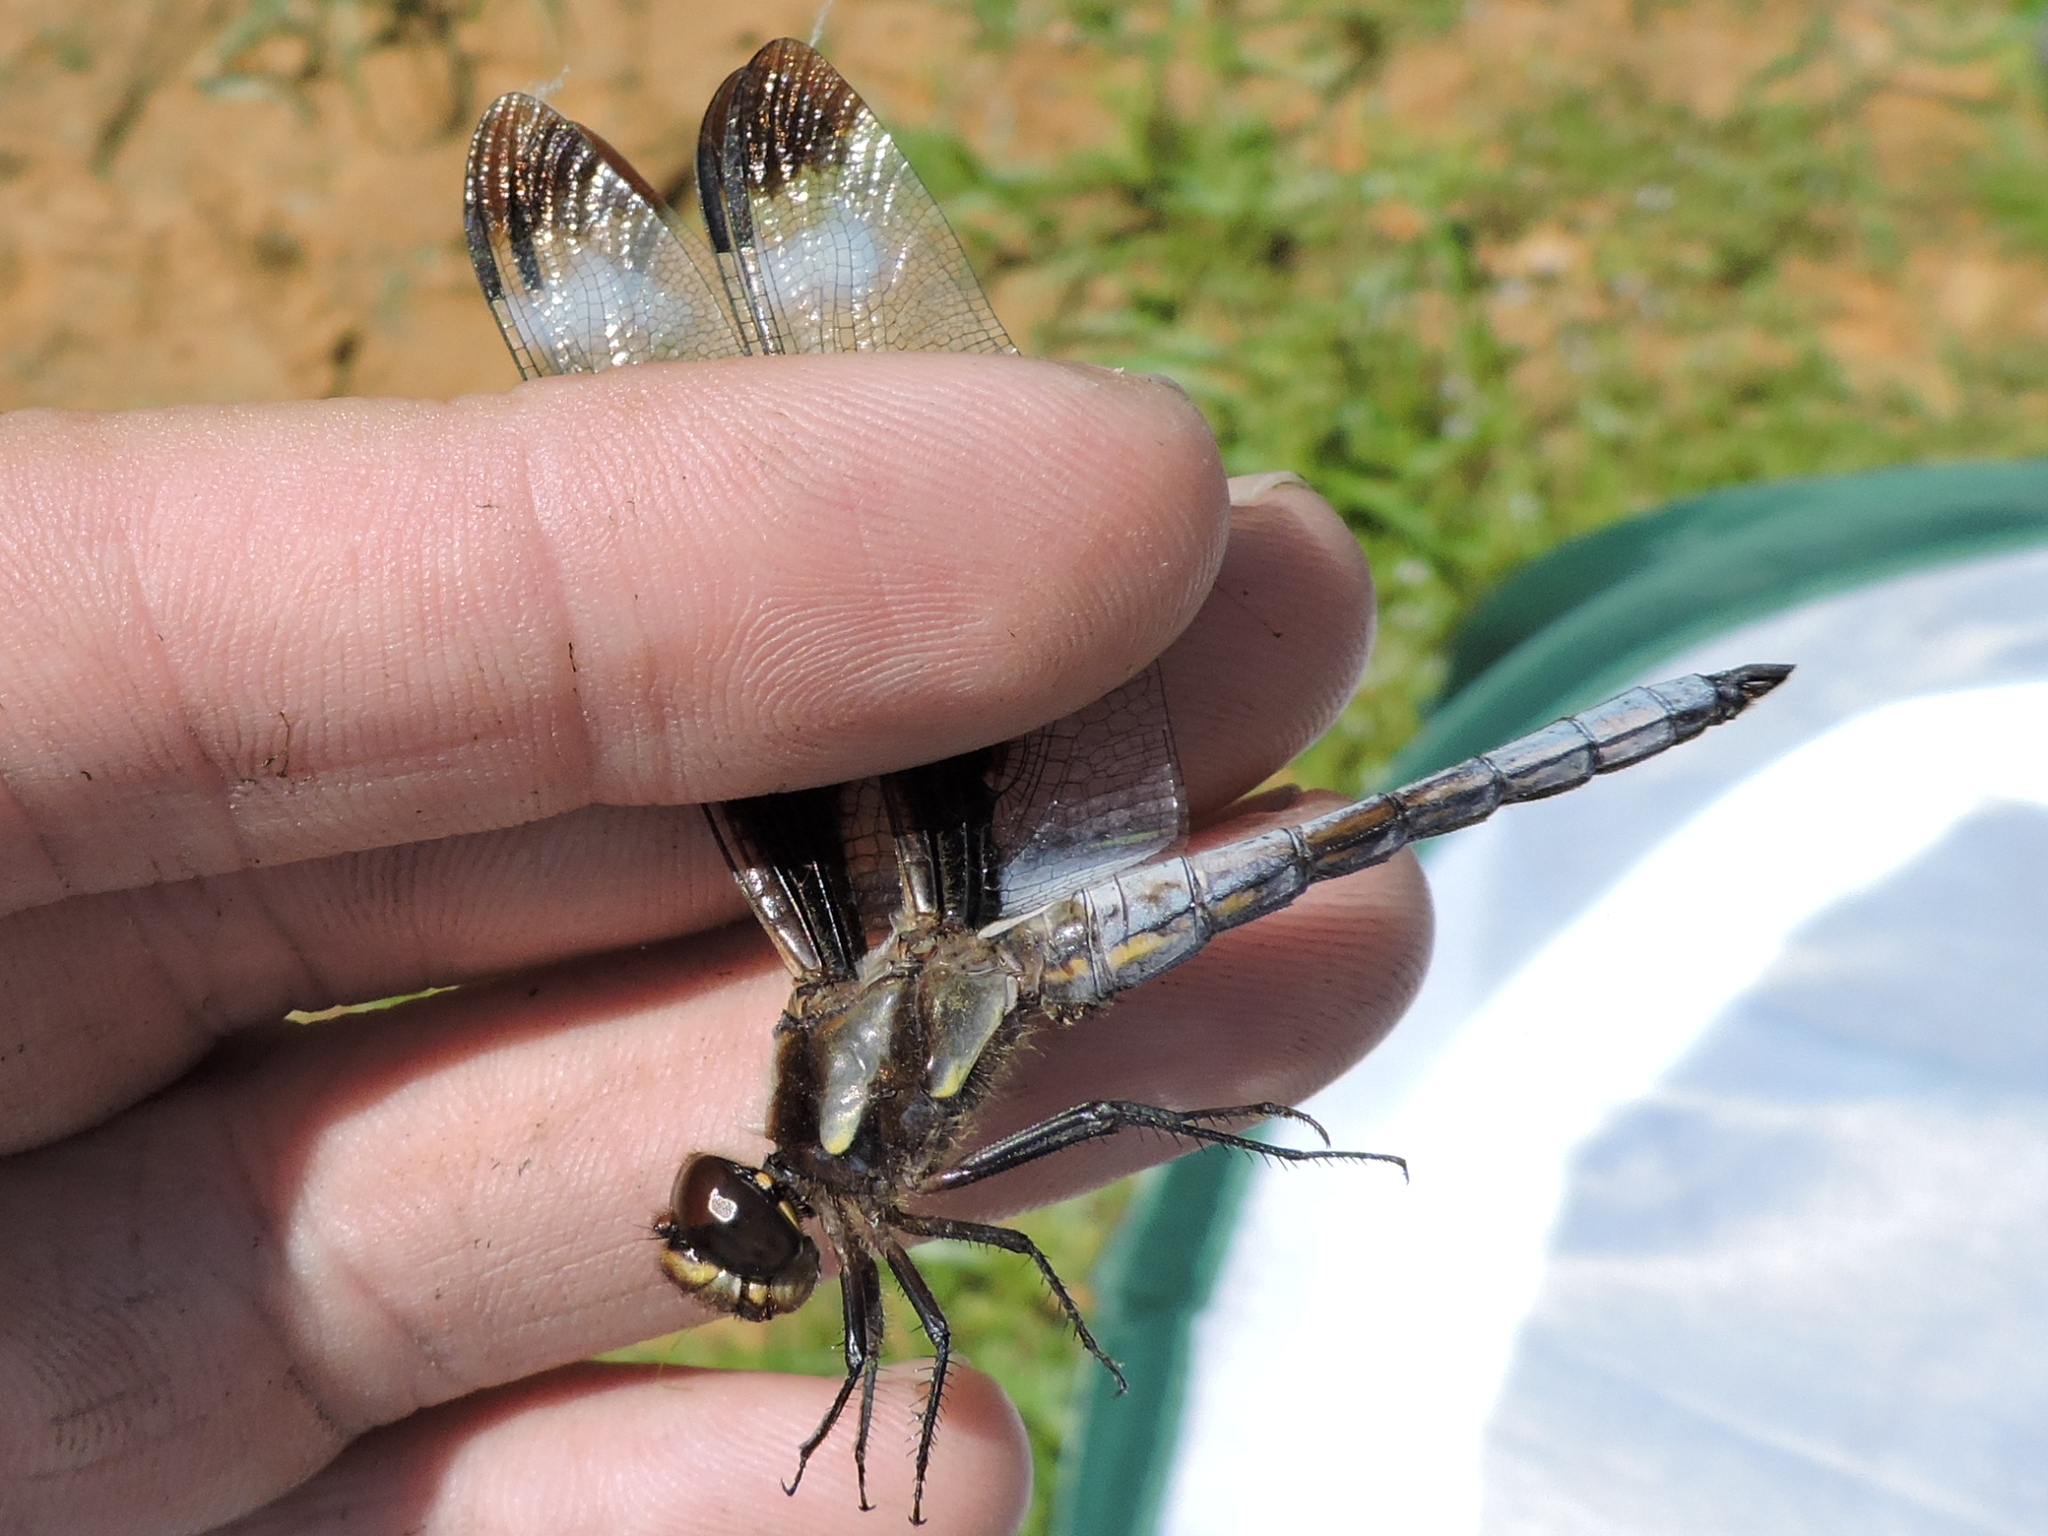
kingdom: Animalia
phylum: Arthropoda
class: Insecta
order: Odonata
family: Libellulidae
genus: Libellula
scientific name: Libellula pulchella
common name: Twelve-spotted skimmer
